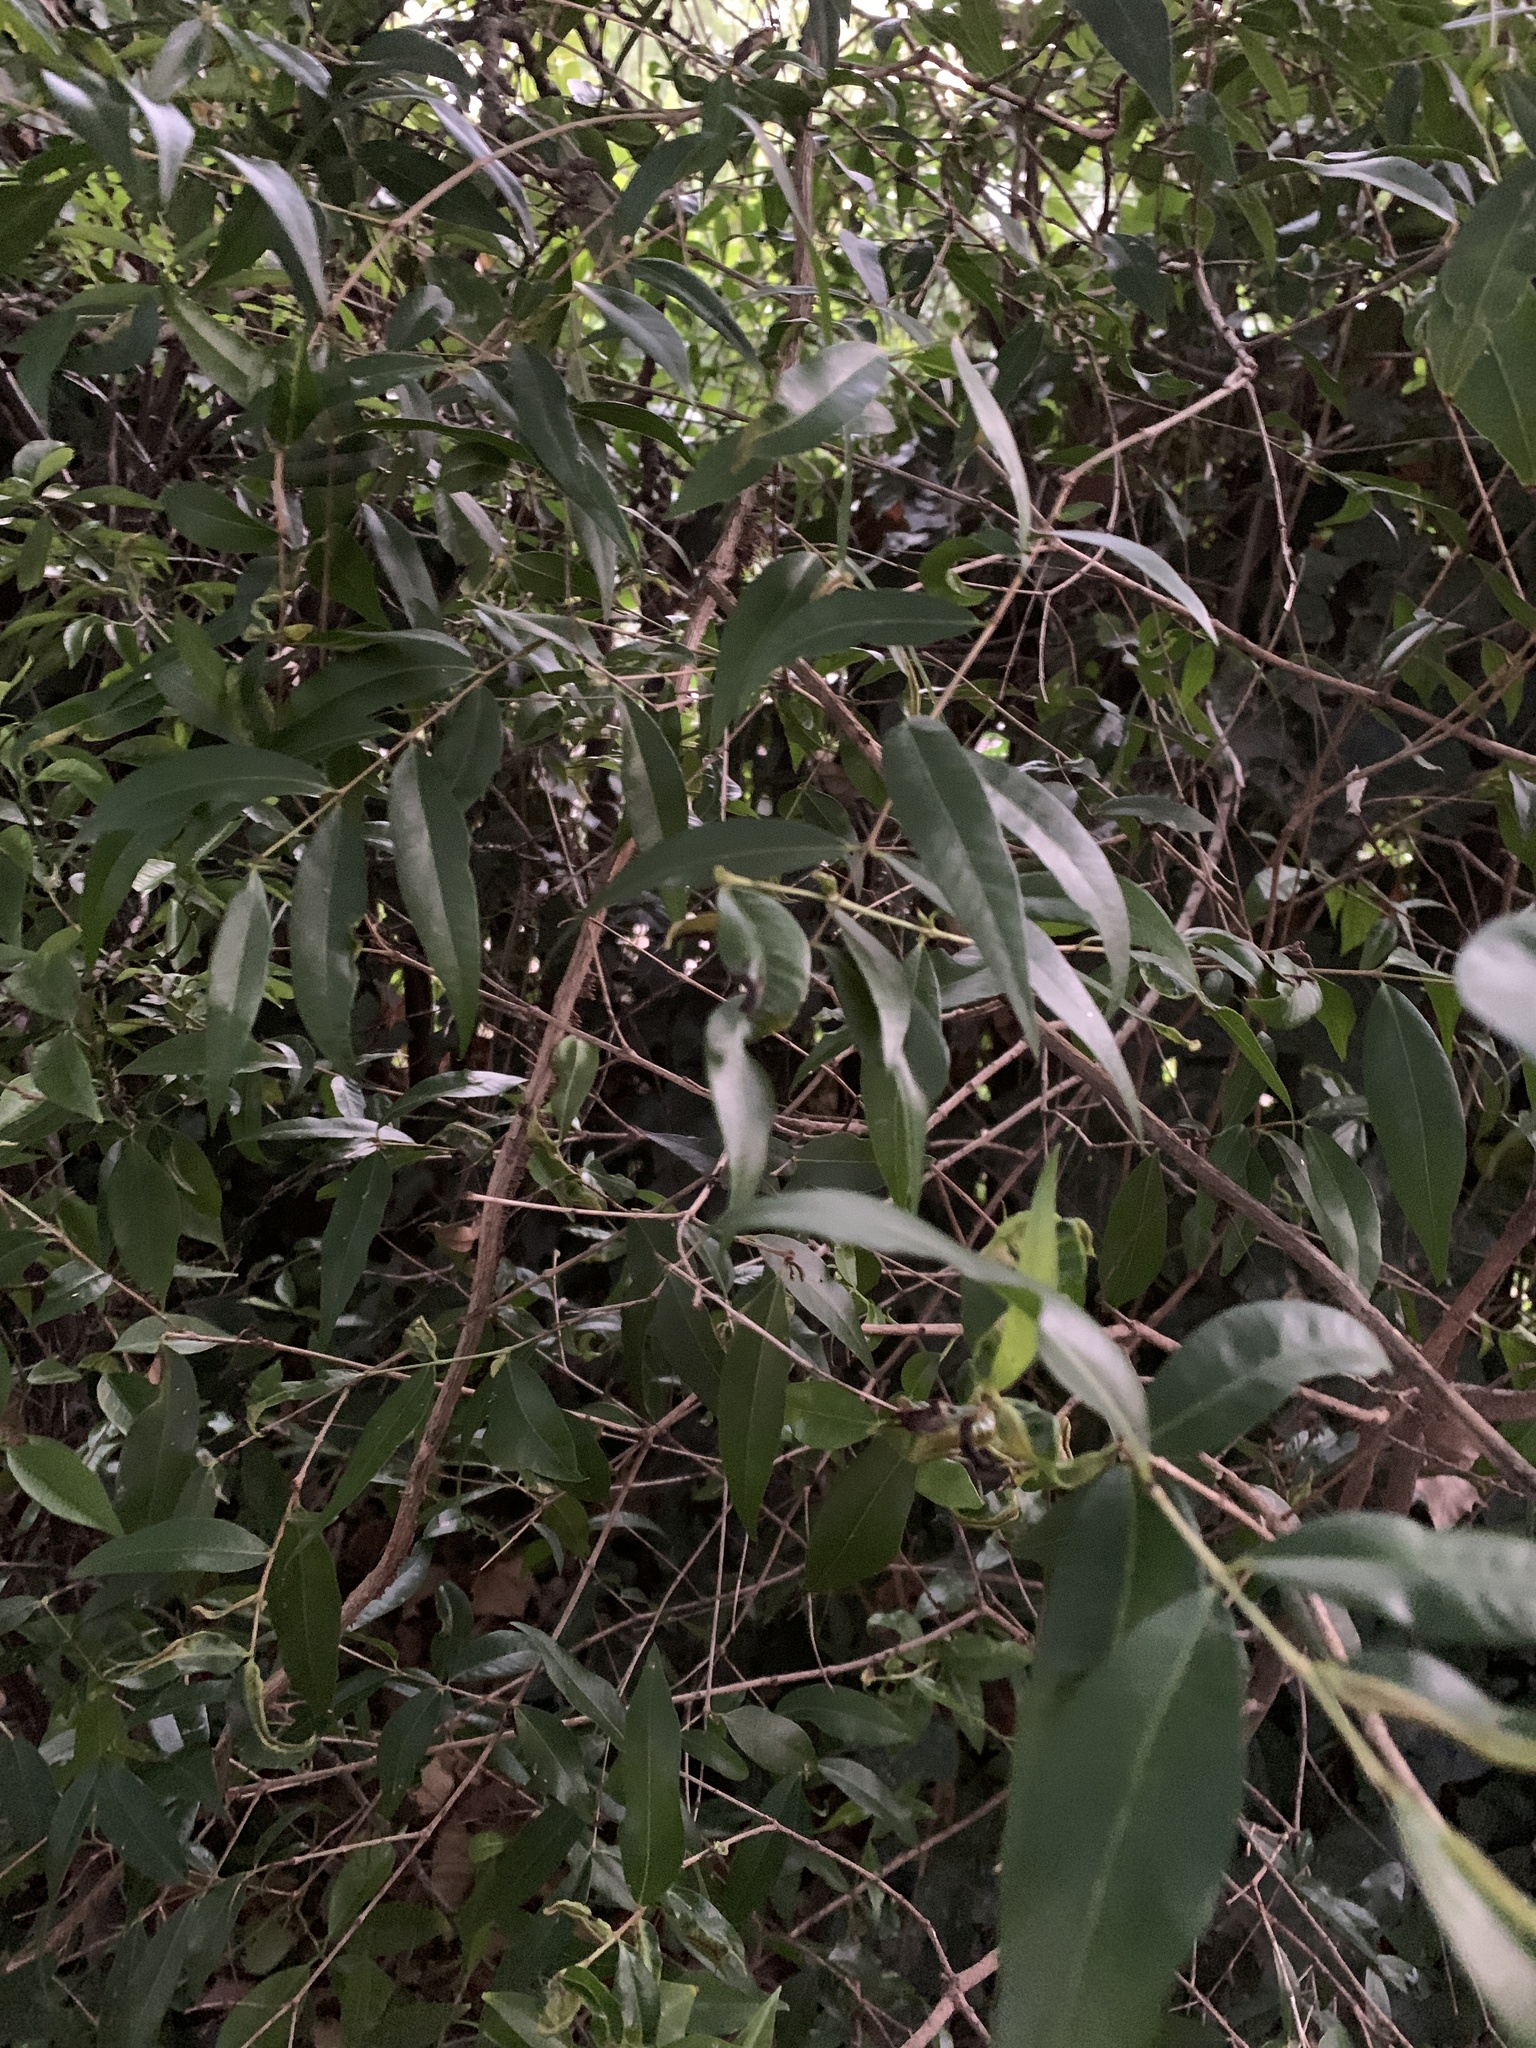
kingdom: Plantae
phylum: Tracheophyta
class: Magnoliopsida
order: Myrtales
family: Myrtaceae
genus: Blepharocalyx
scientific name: Blepharocalyx salicifolius
